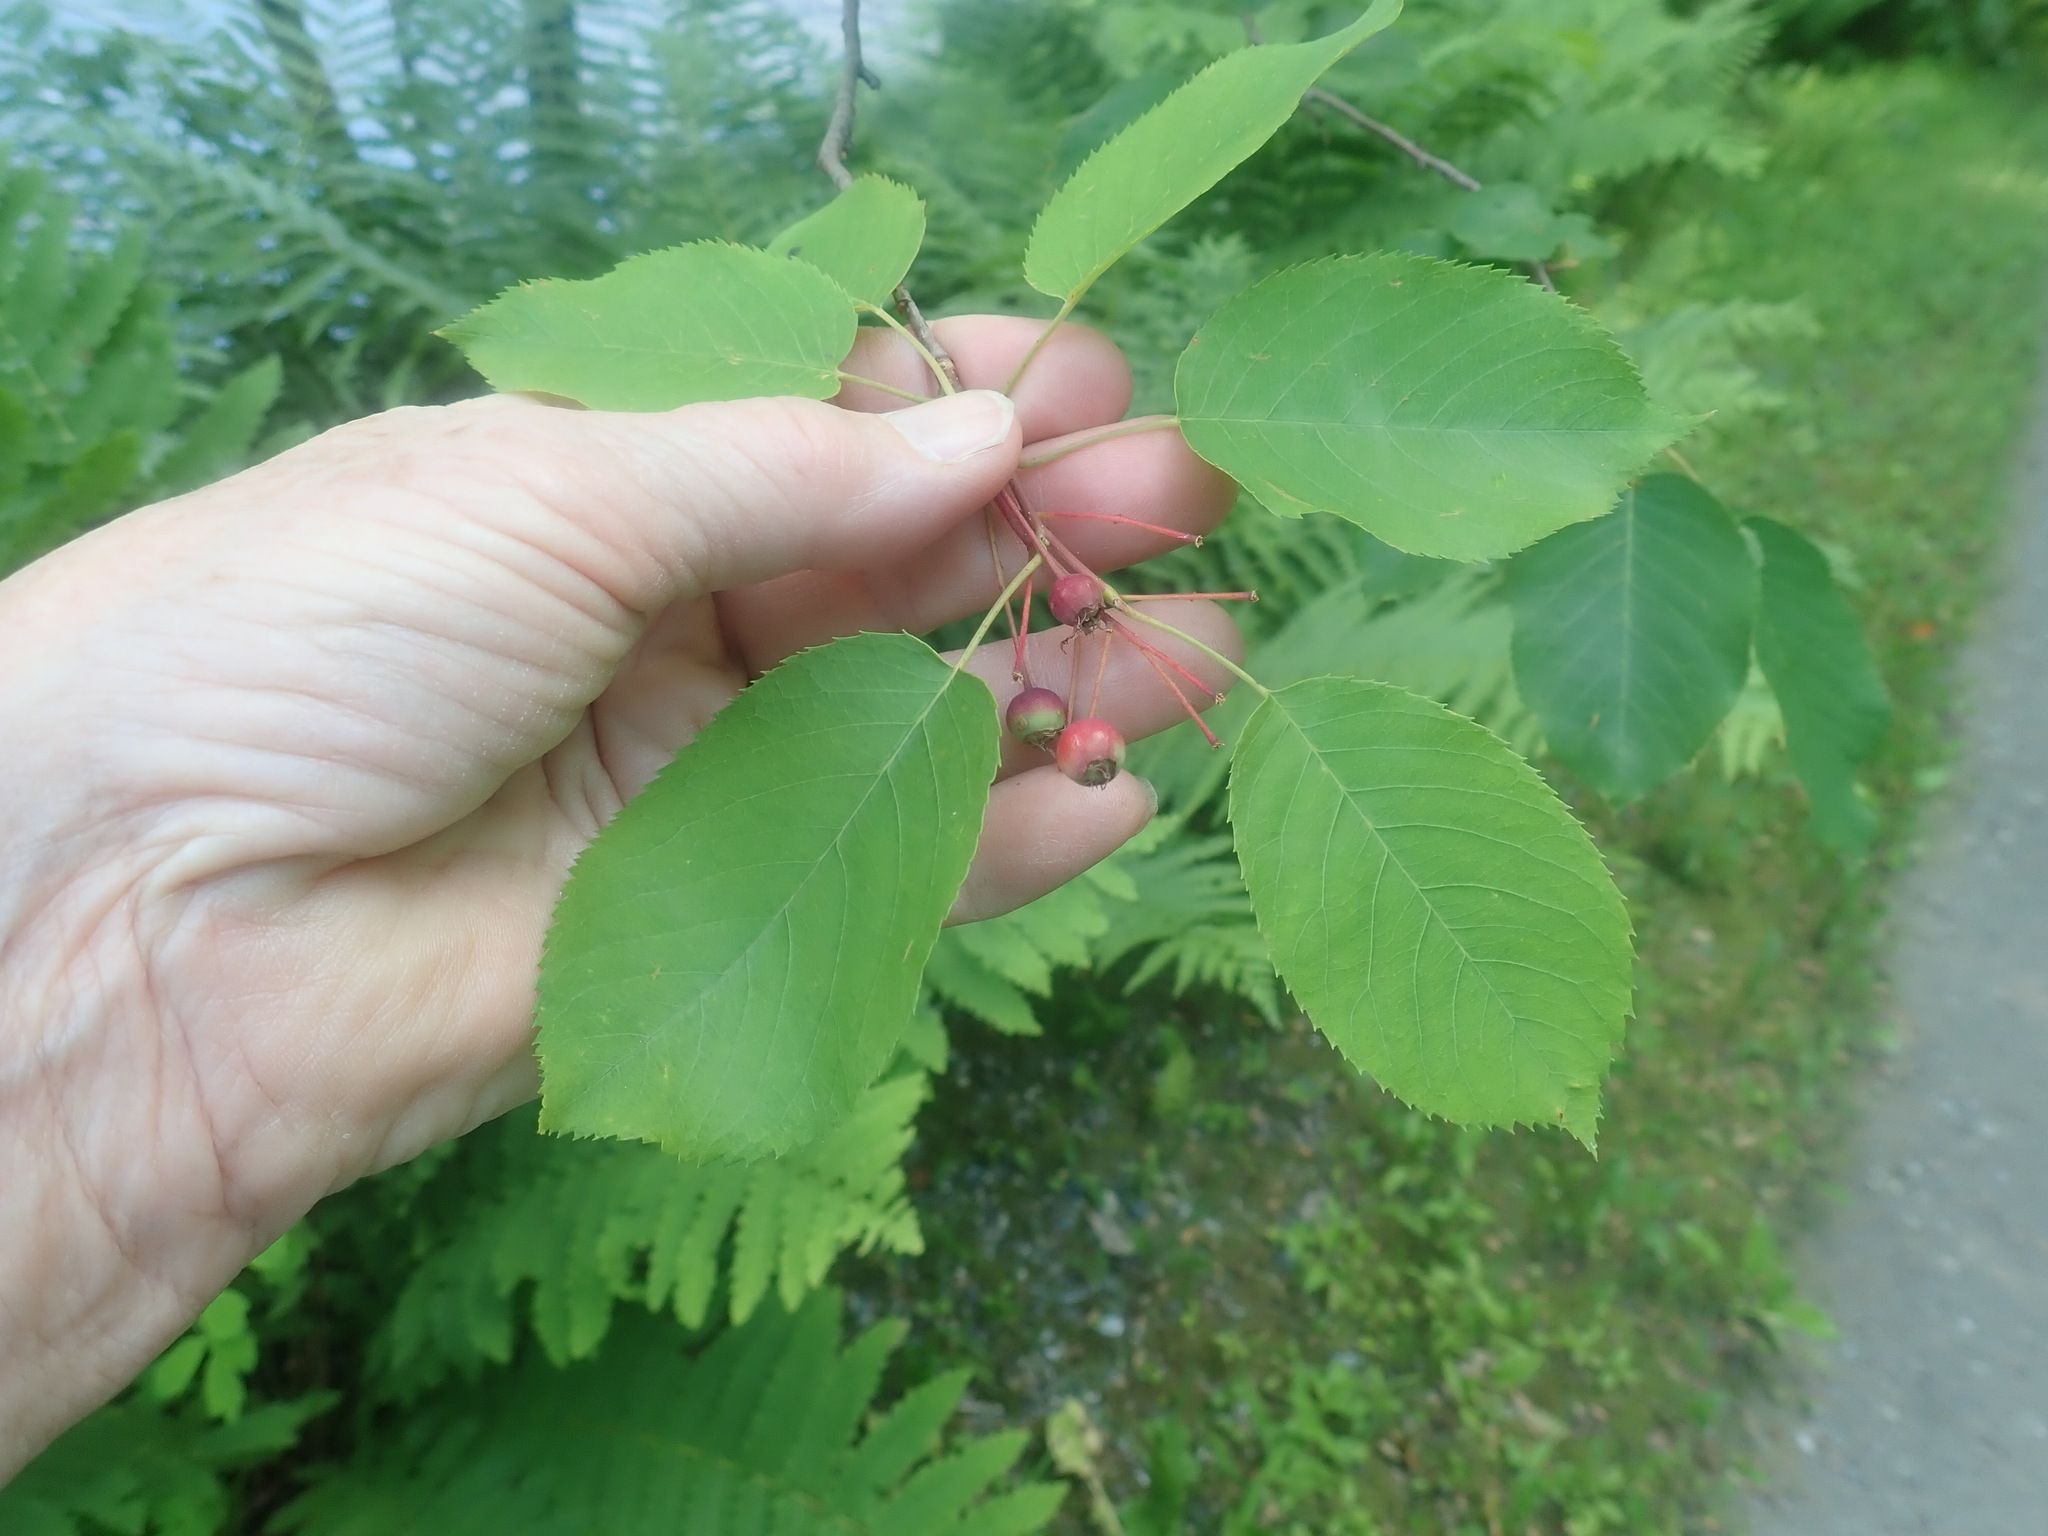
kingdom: Plantae
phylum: Tracheophyta
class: Magnoliopsida
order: Rosales
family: Rosaceae
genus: Amelanchier
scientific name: Amelanchier
